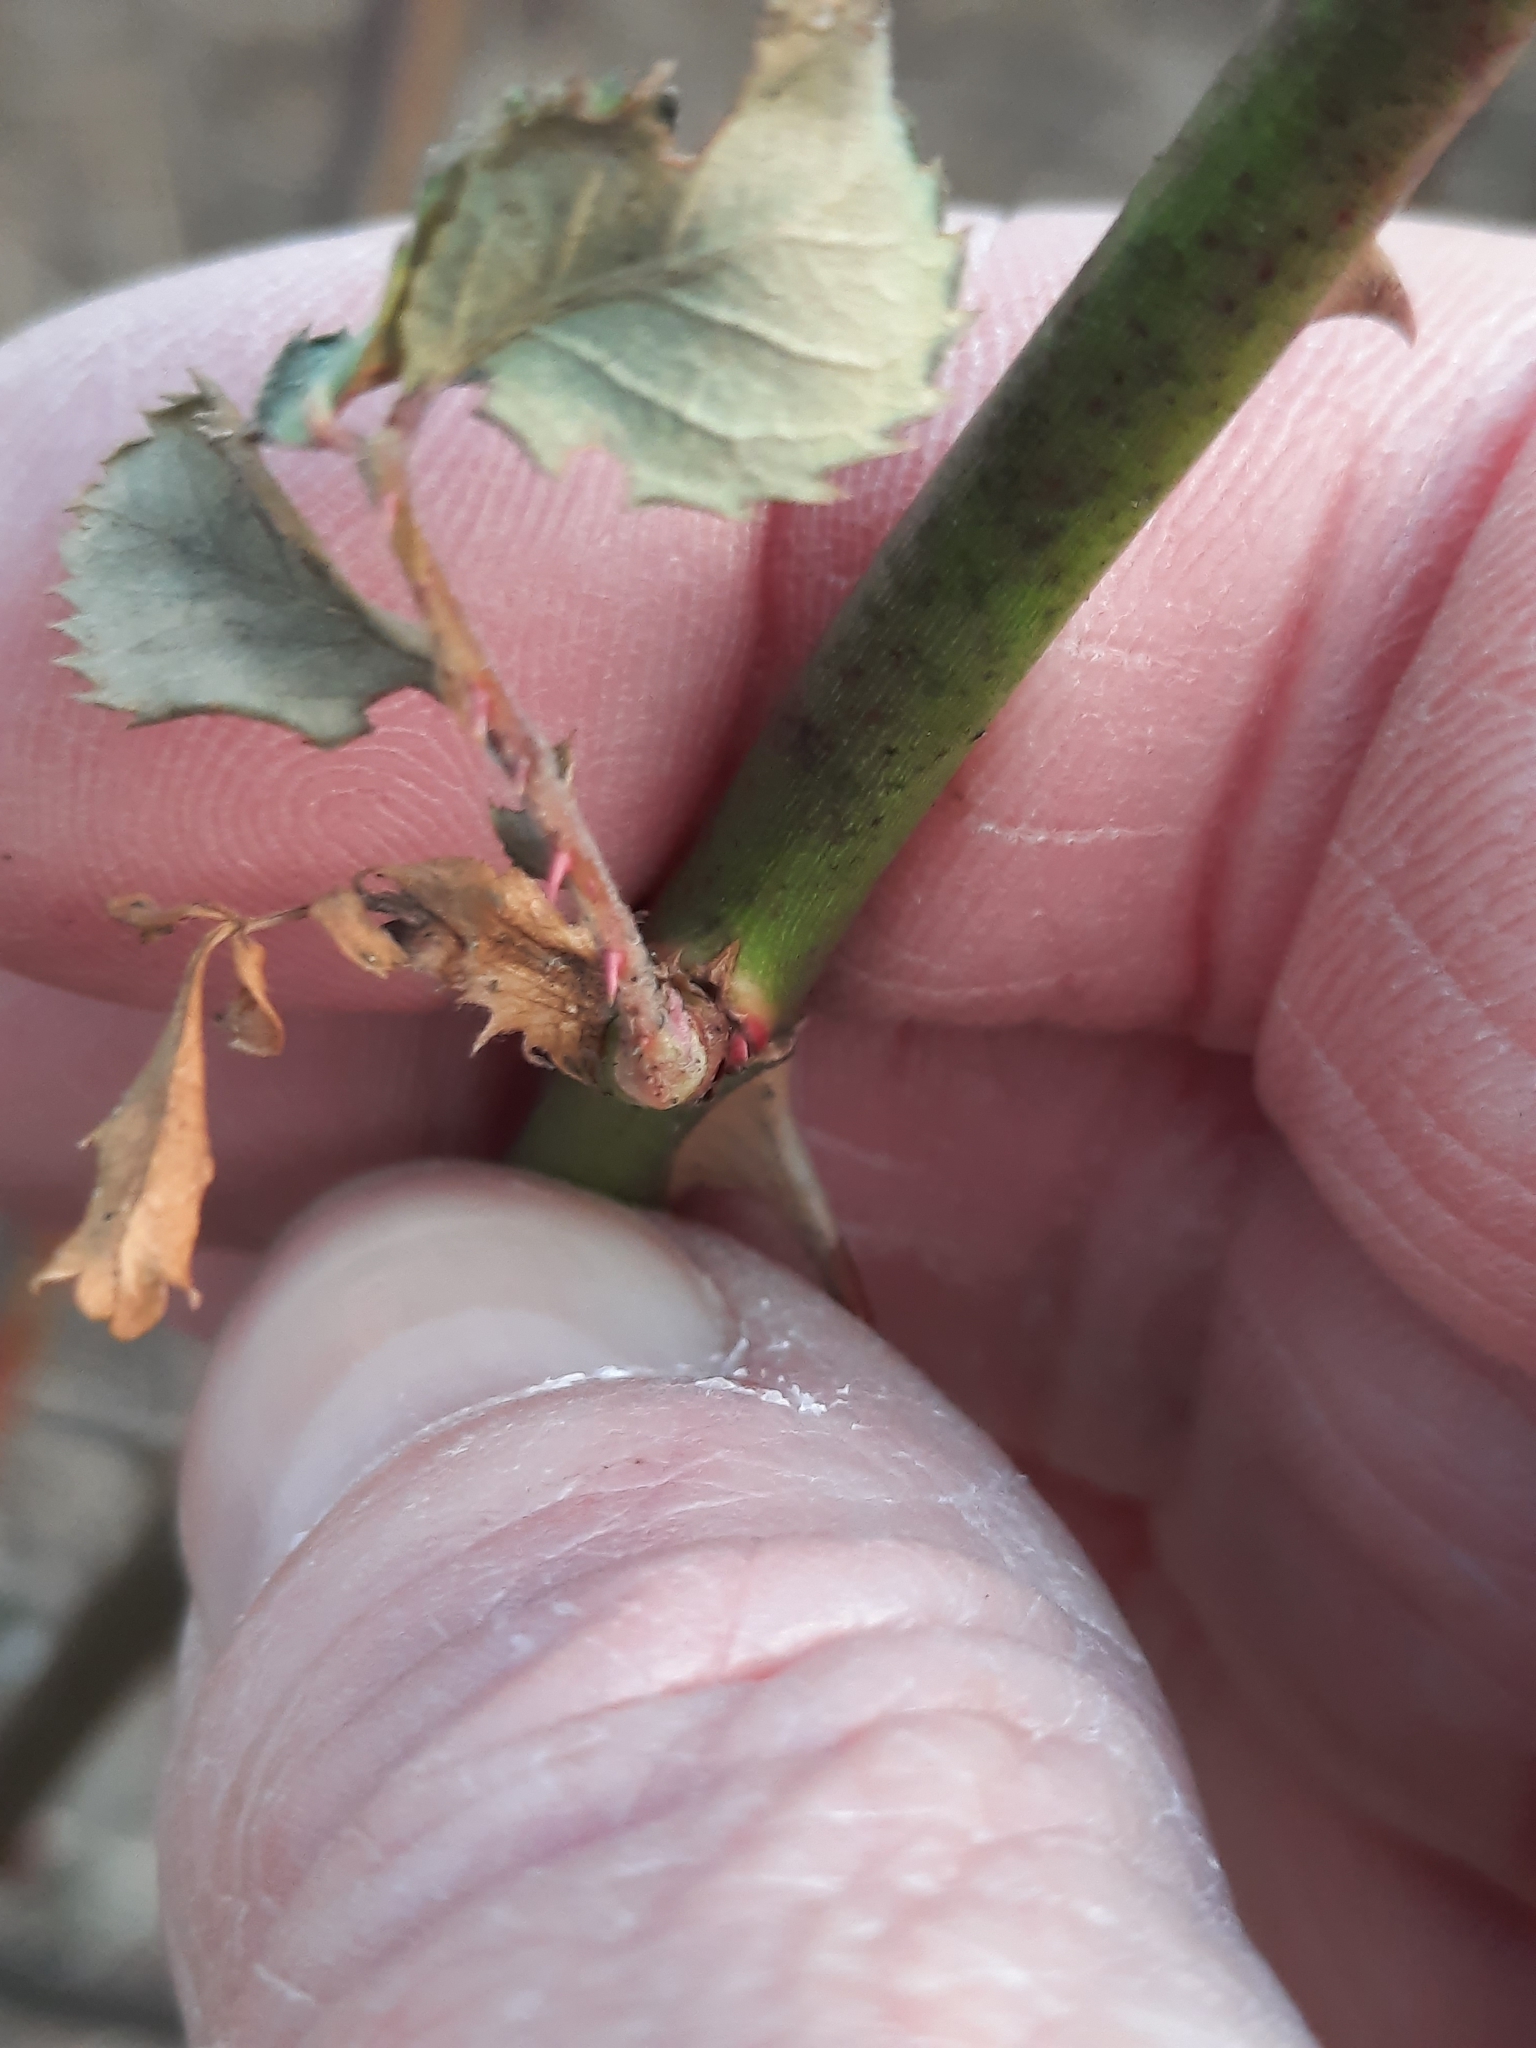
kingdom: Plantae
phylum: Tracheophyta
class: Magnoliopsida
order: Rosales
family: Rosaceae
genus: Rosa
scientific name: Rosa multiflora
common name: Multiflora rose
